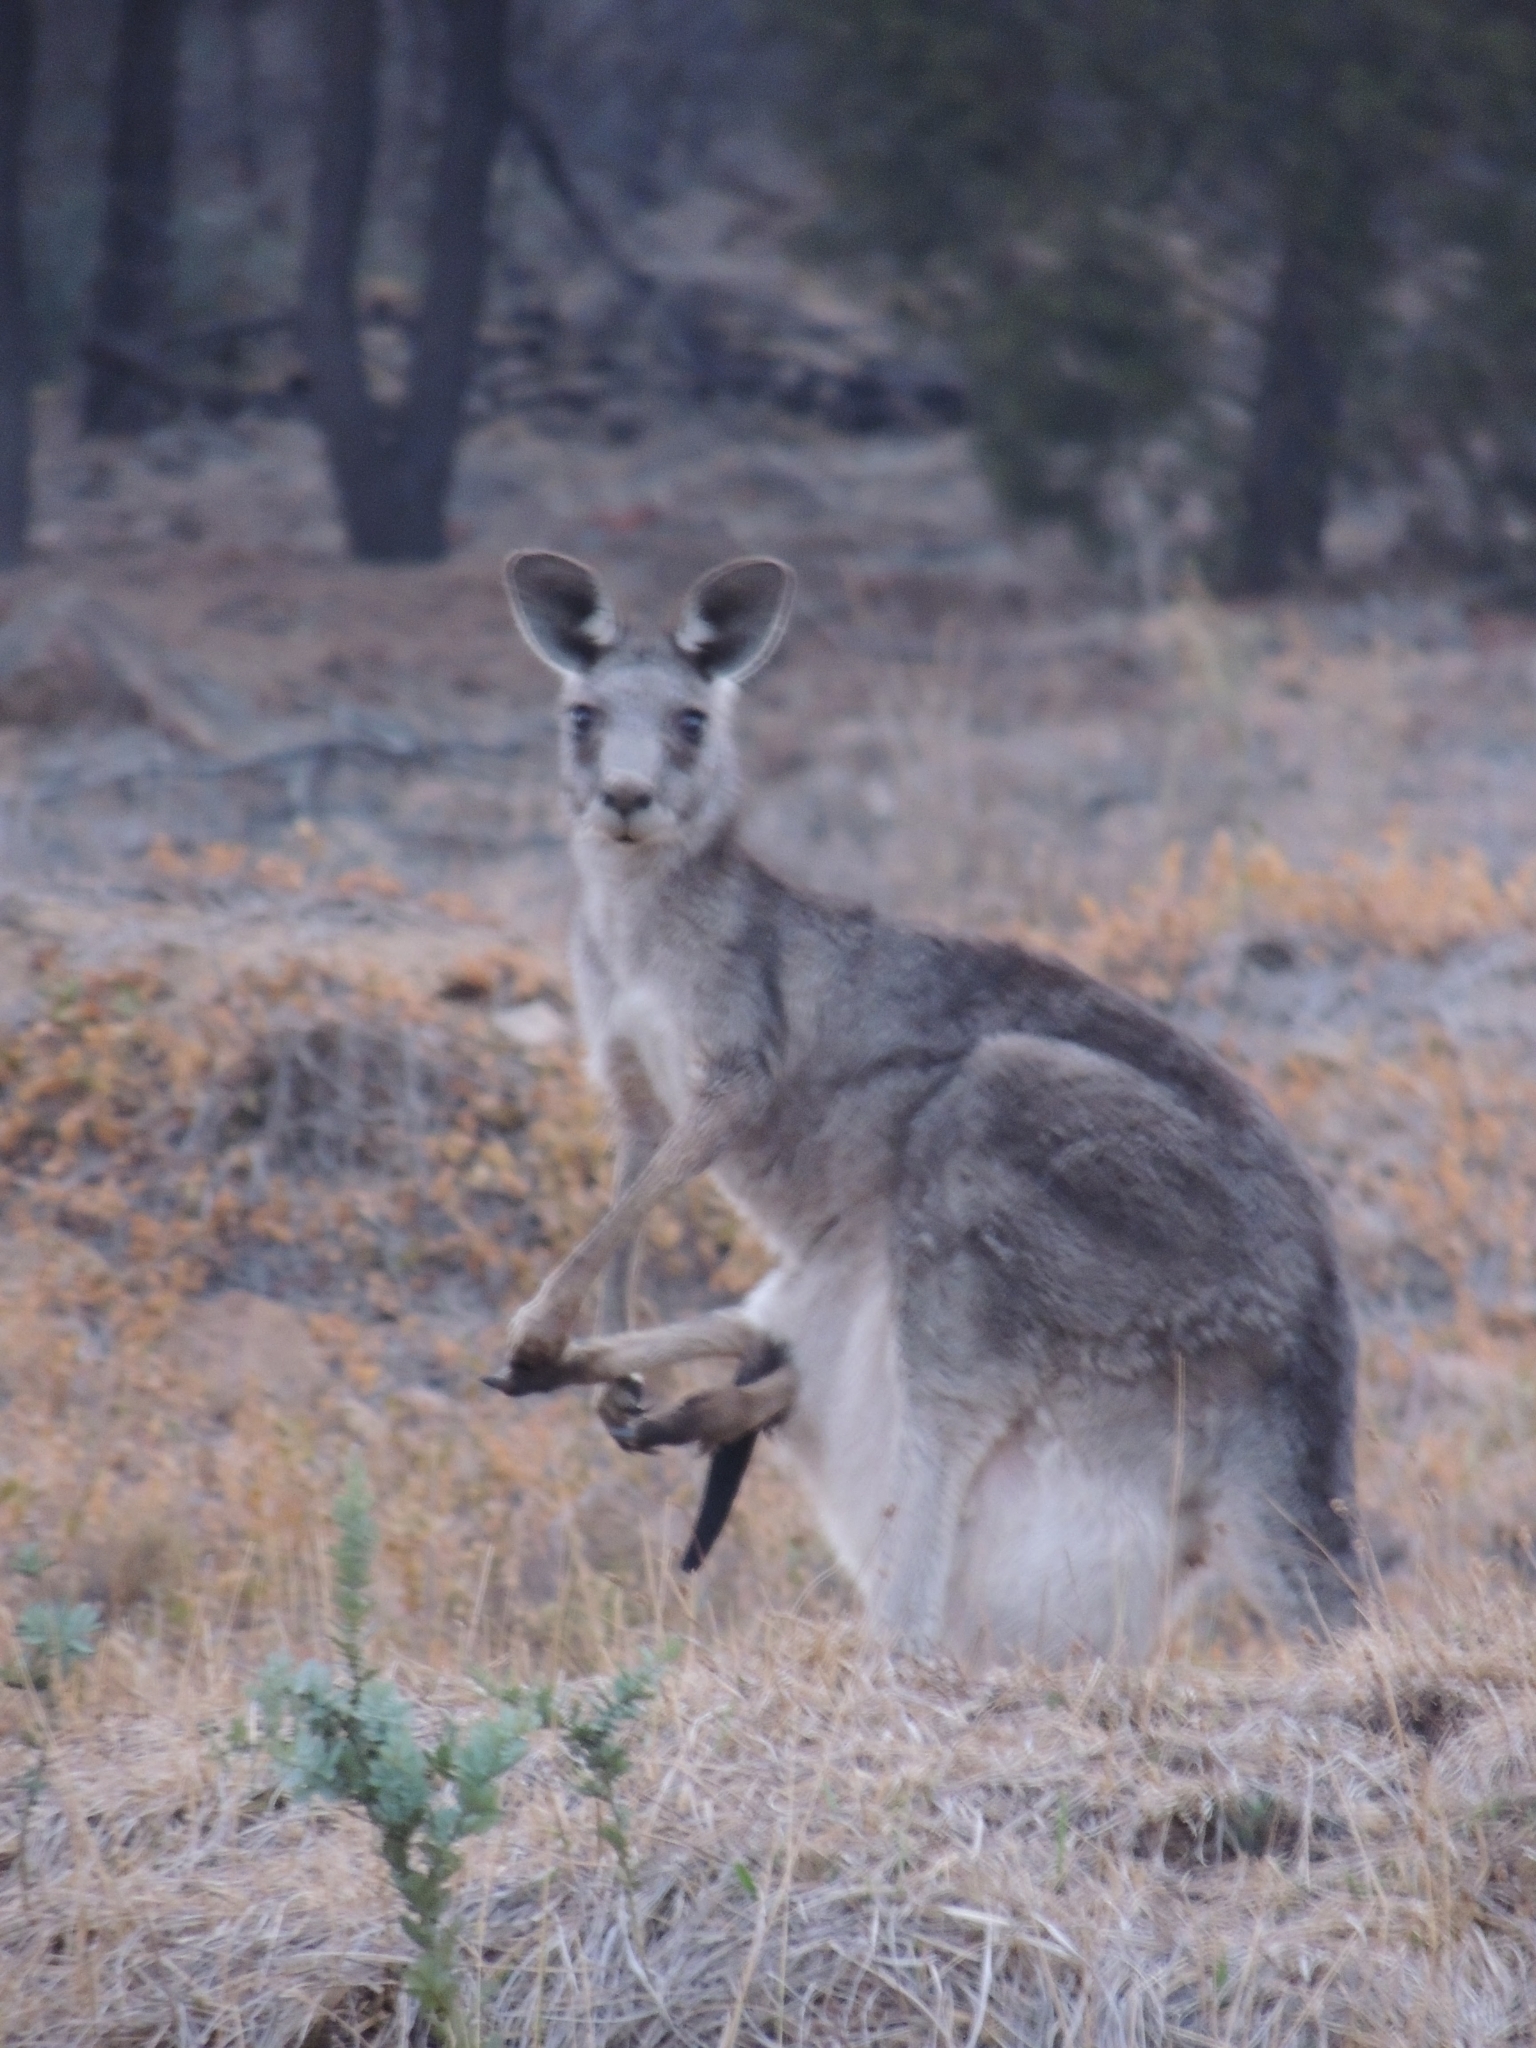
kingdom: Animalia
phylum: Chordata
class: Mammalia
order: Diprotodontia
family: Macropodidae
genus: Macropus
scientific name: Macropus giganteus
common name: Eastern grey kangaroo
